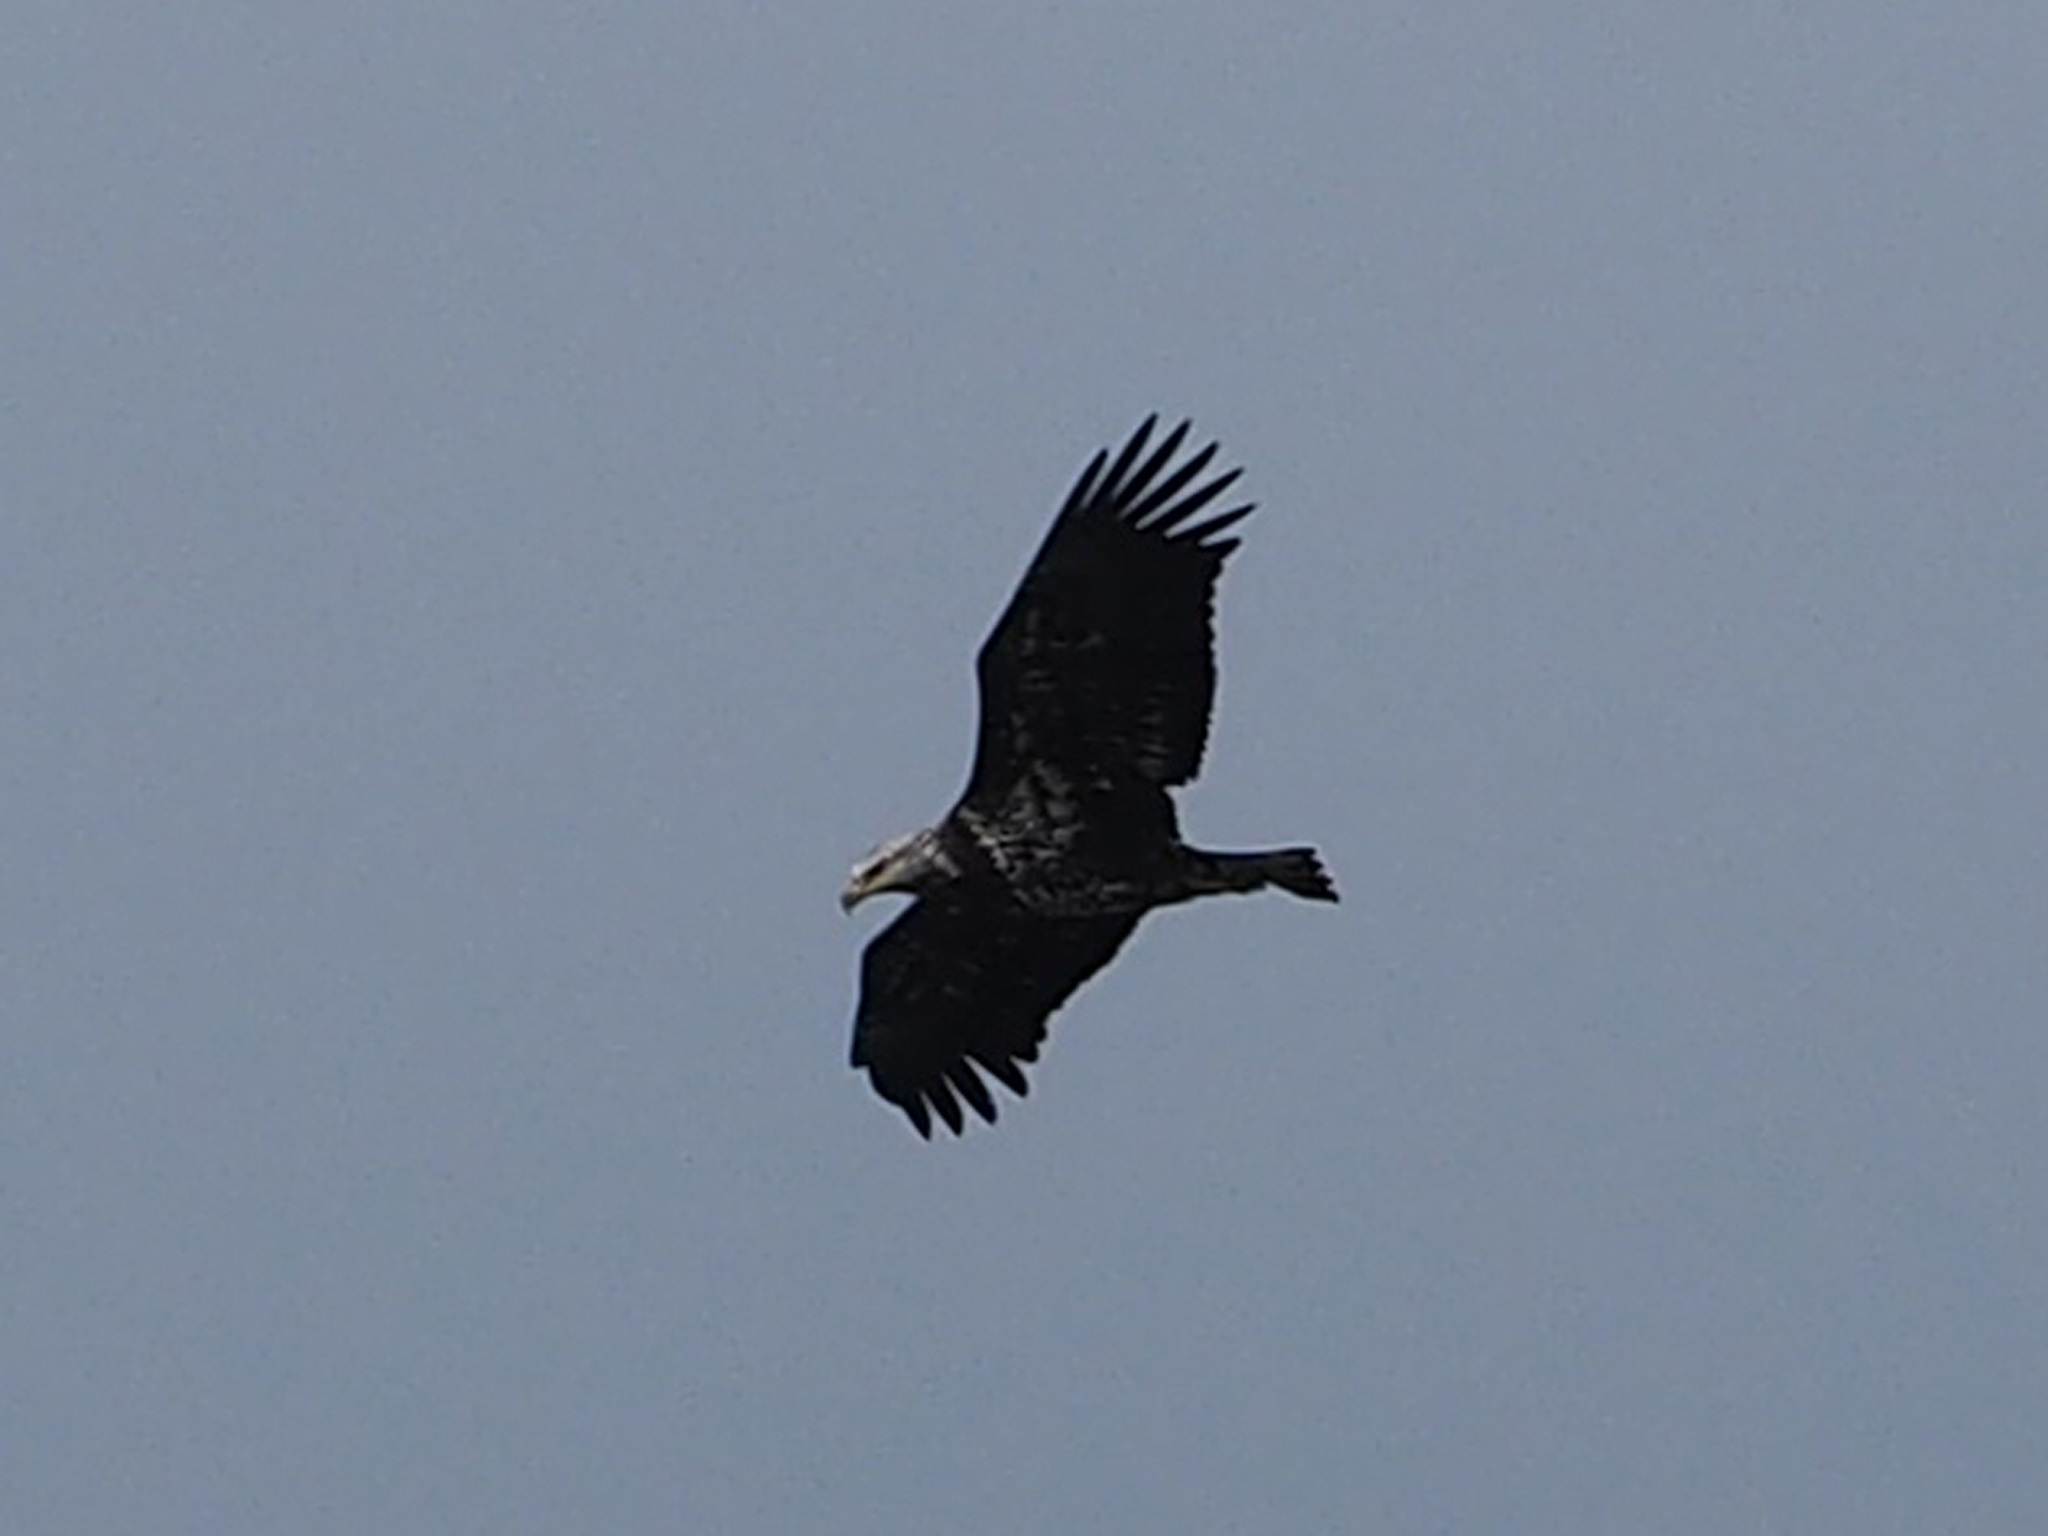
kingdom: Animalia
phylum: Chordata
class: Aves
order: Accipitriformes
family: Accipitridae
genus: Haliaeetus
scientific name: Haliaeetus leucocephalus
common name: Bald eagle
